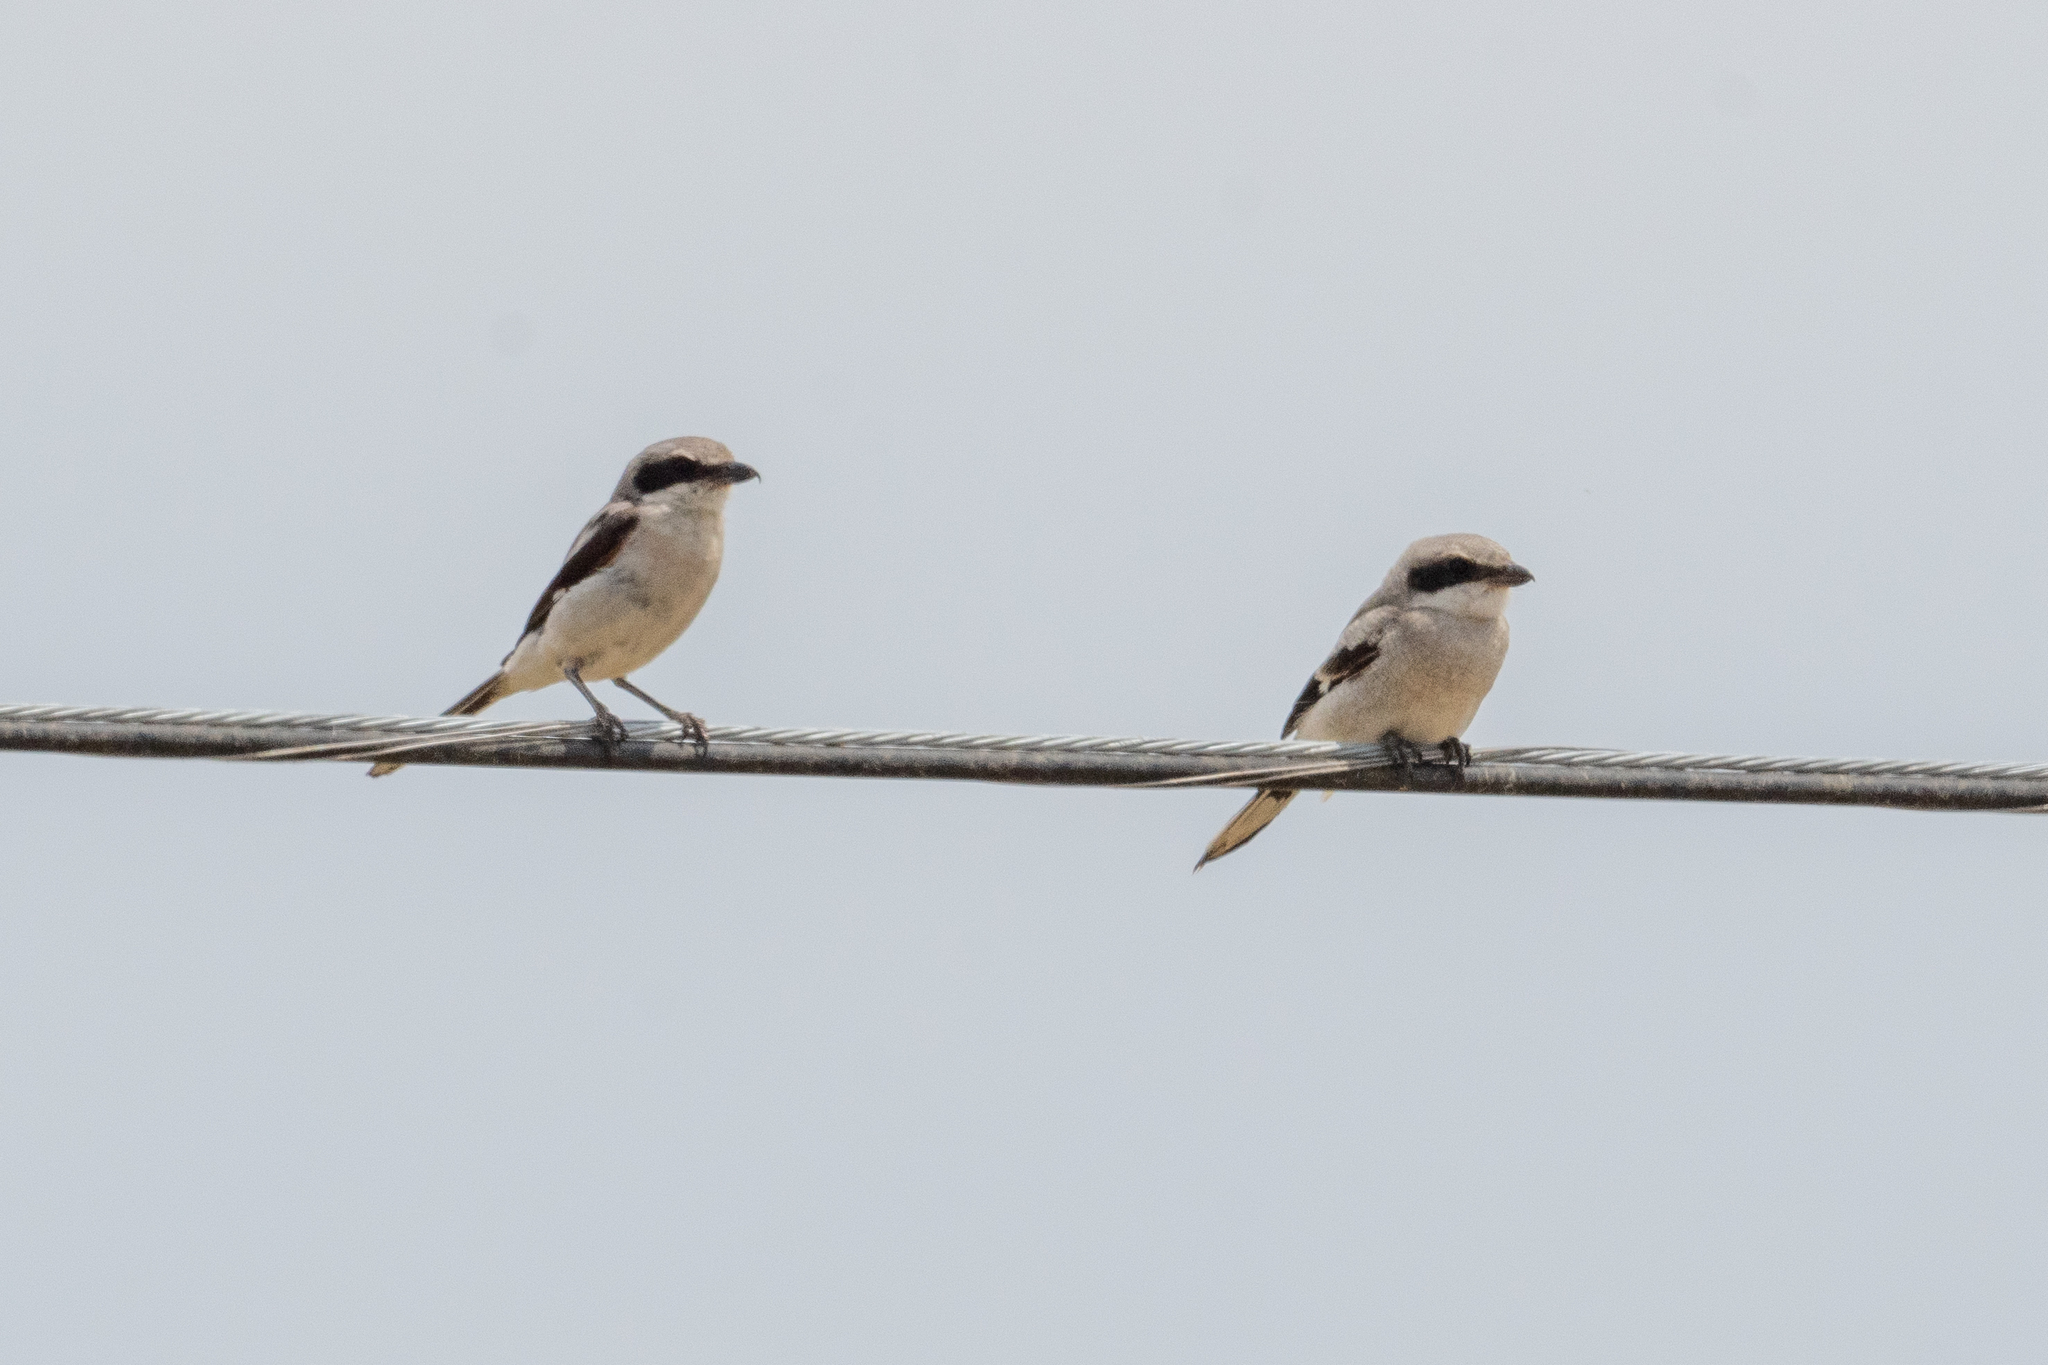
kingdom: Animalia
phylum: Chordata
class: Aves
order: Passeriformes
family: Laniidae
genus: Lanius
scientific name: Lanius ludovicianus
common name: Loggerhead shrike
